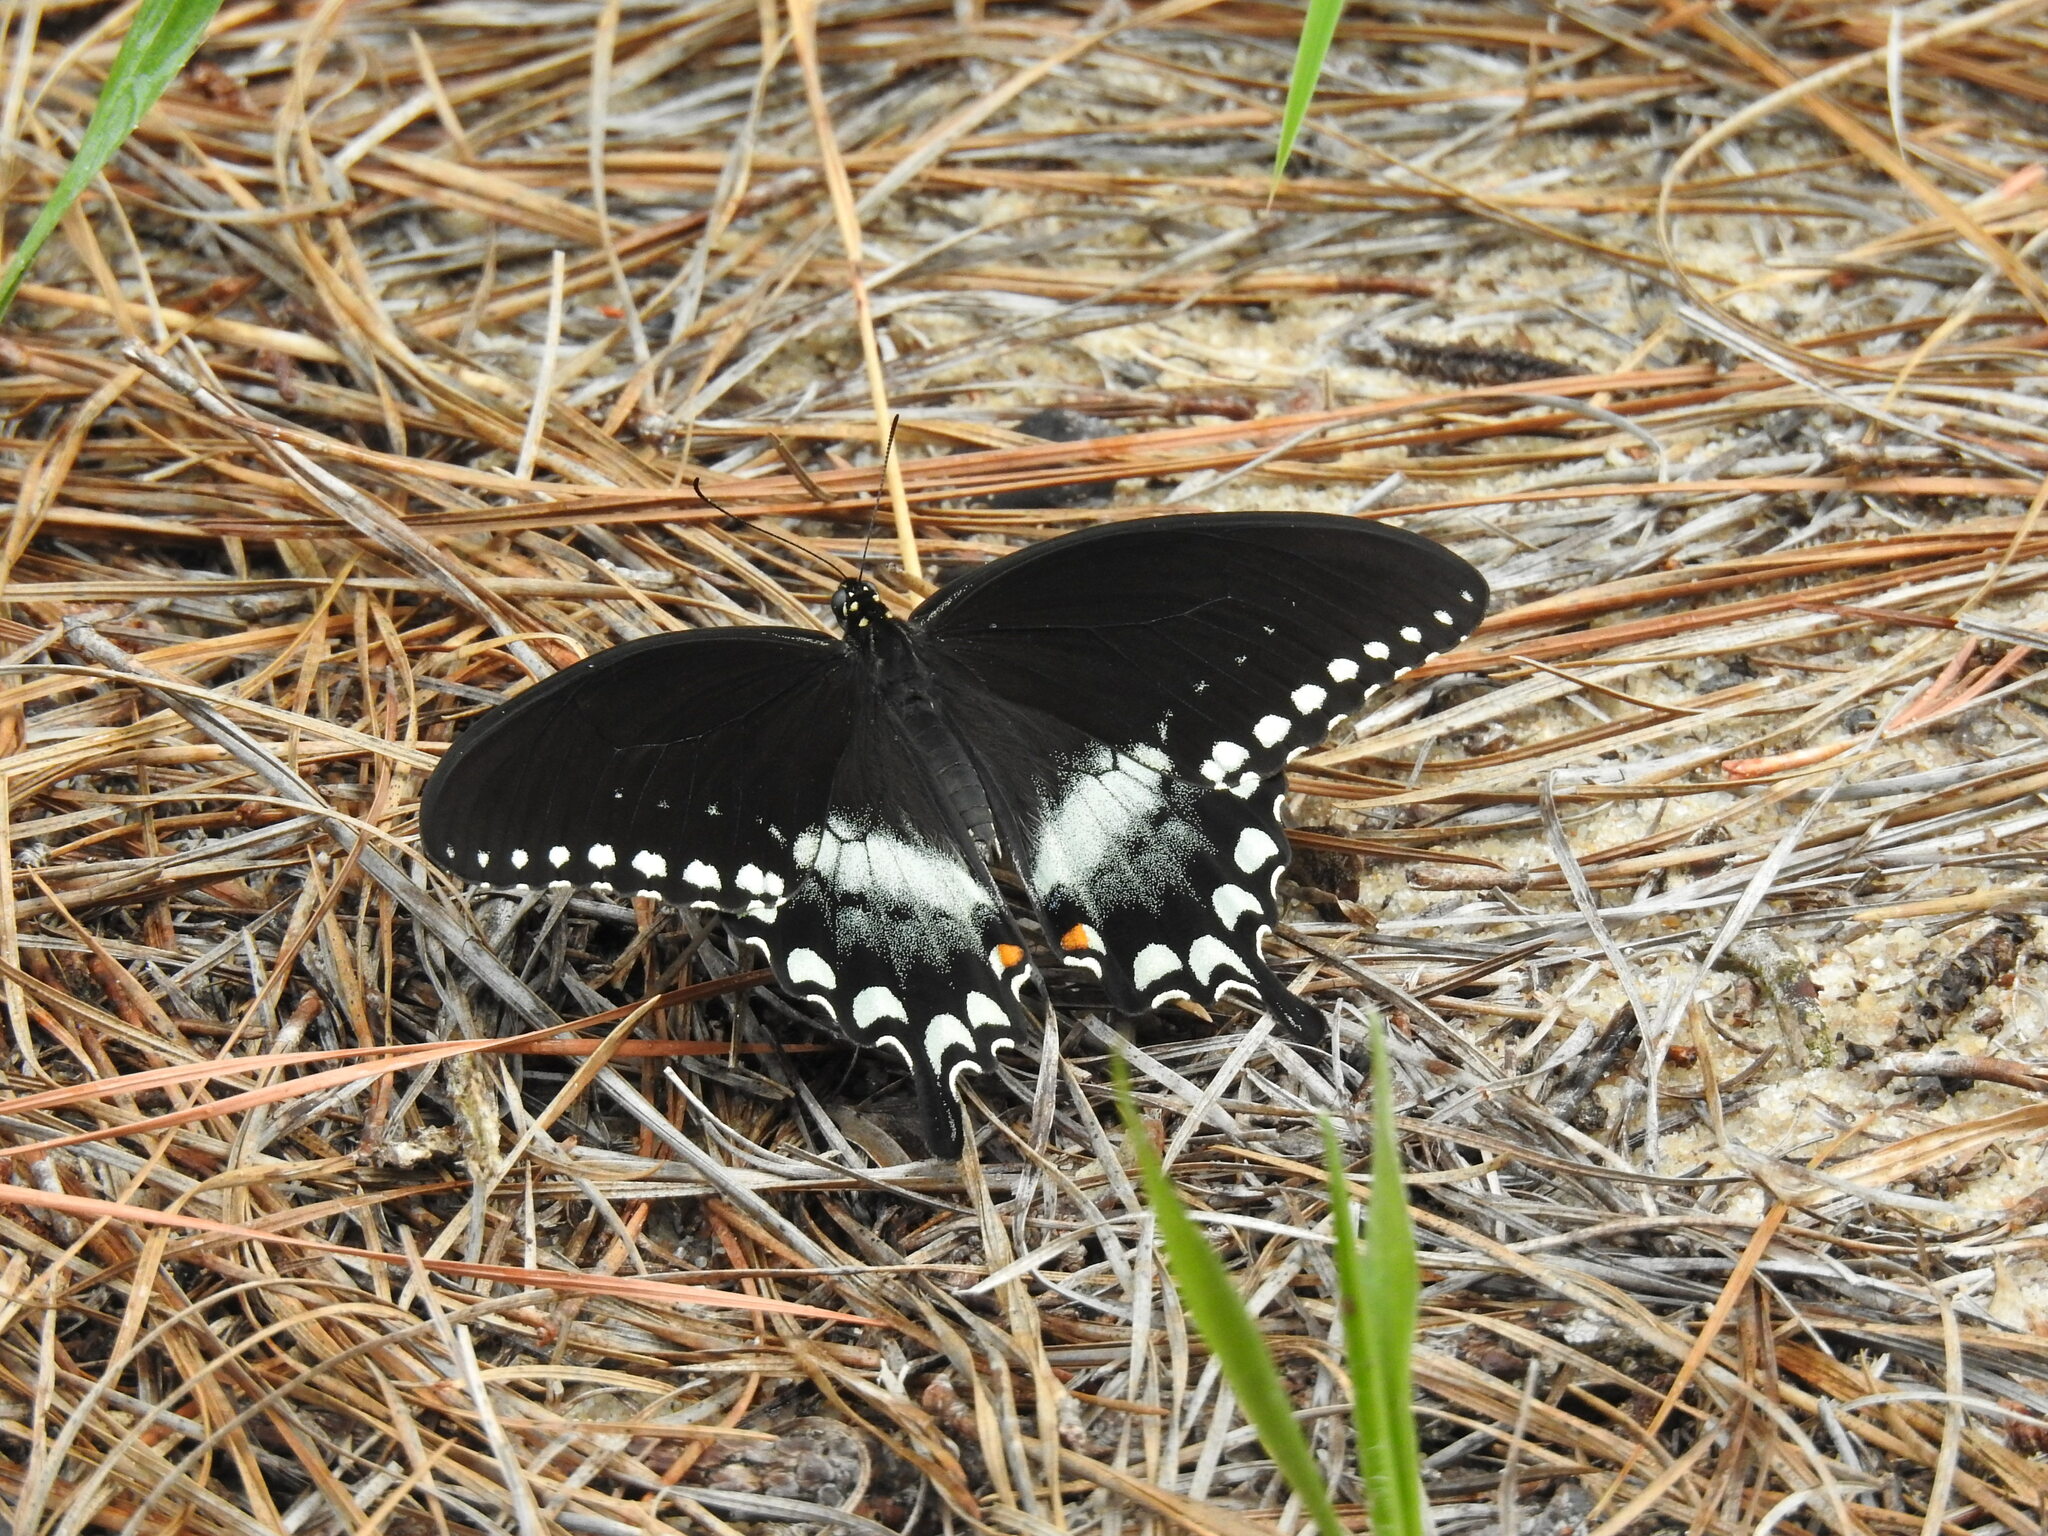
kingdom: Animalia
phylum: Arthropoda
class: Insecta
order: Lepidoptera
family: Papilionidae
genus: Papilio
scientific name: Papilio troilus
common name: Spicebush swallowtail
